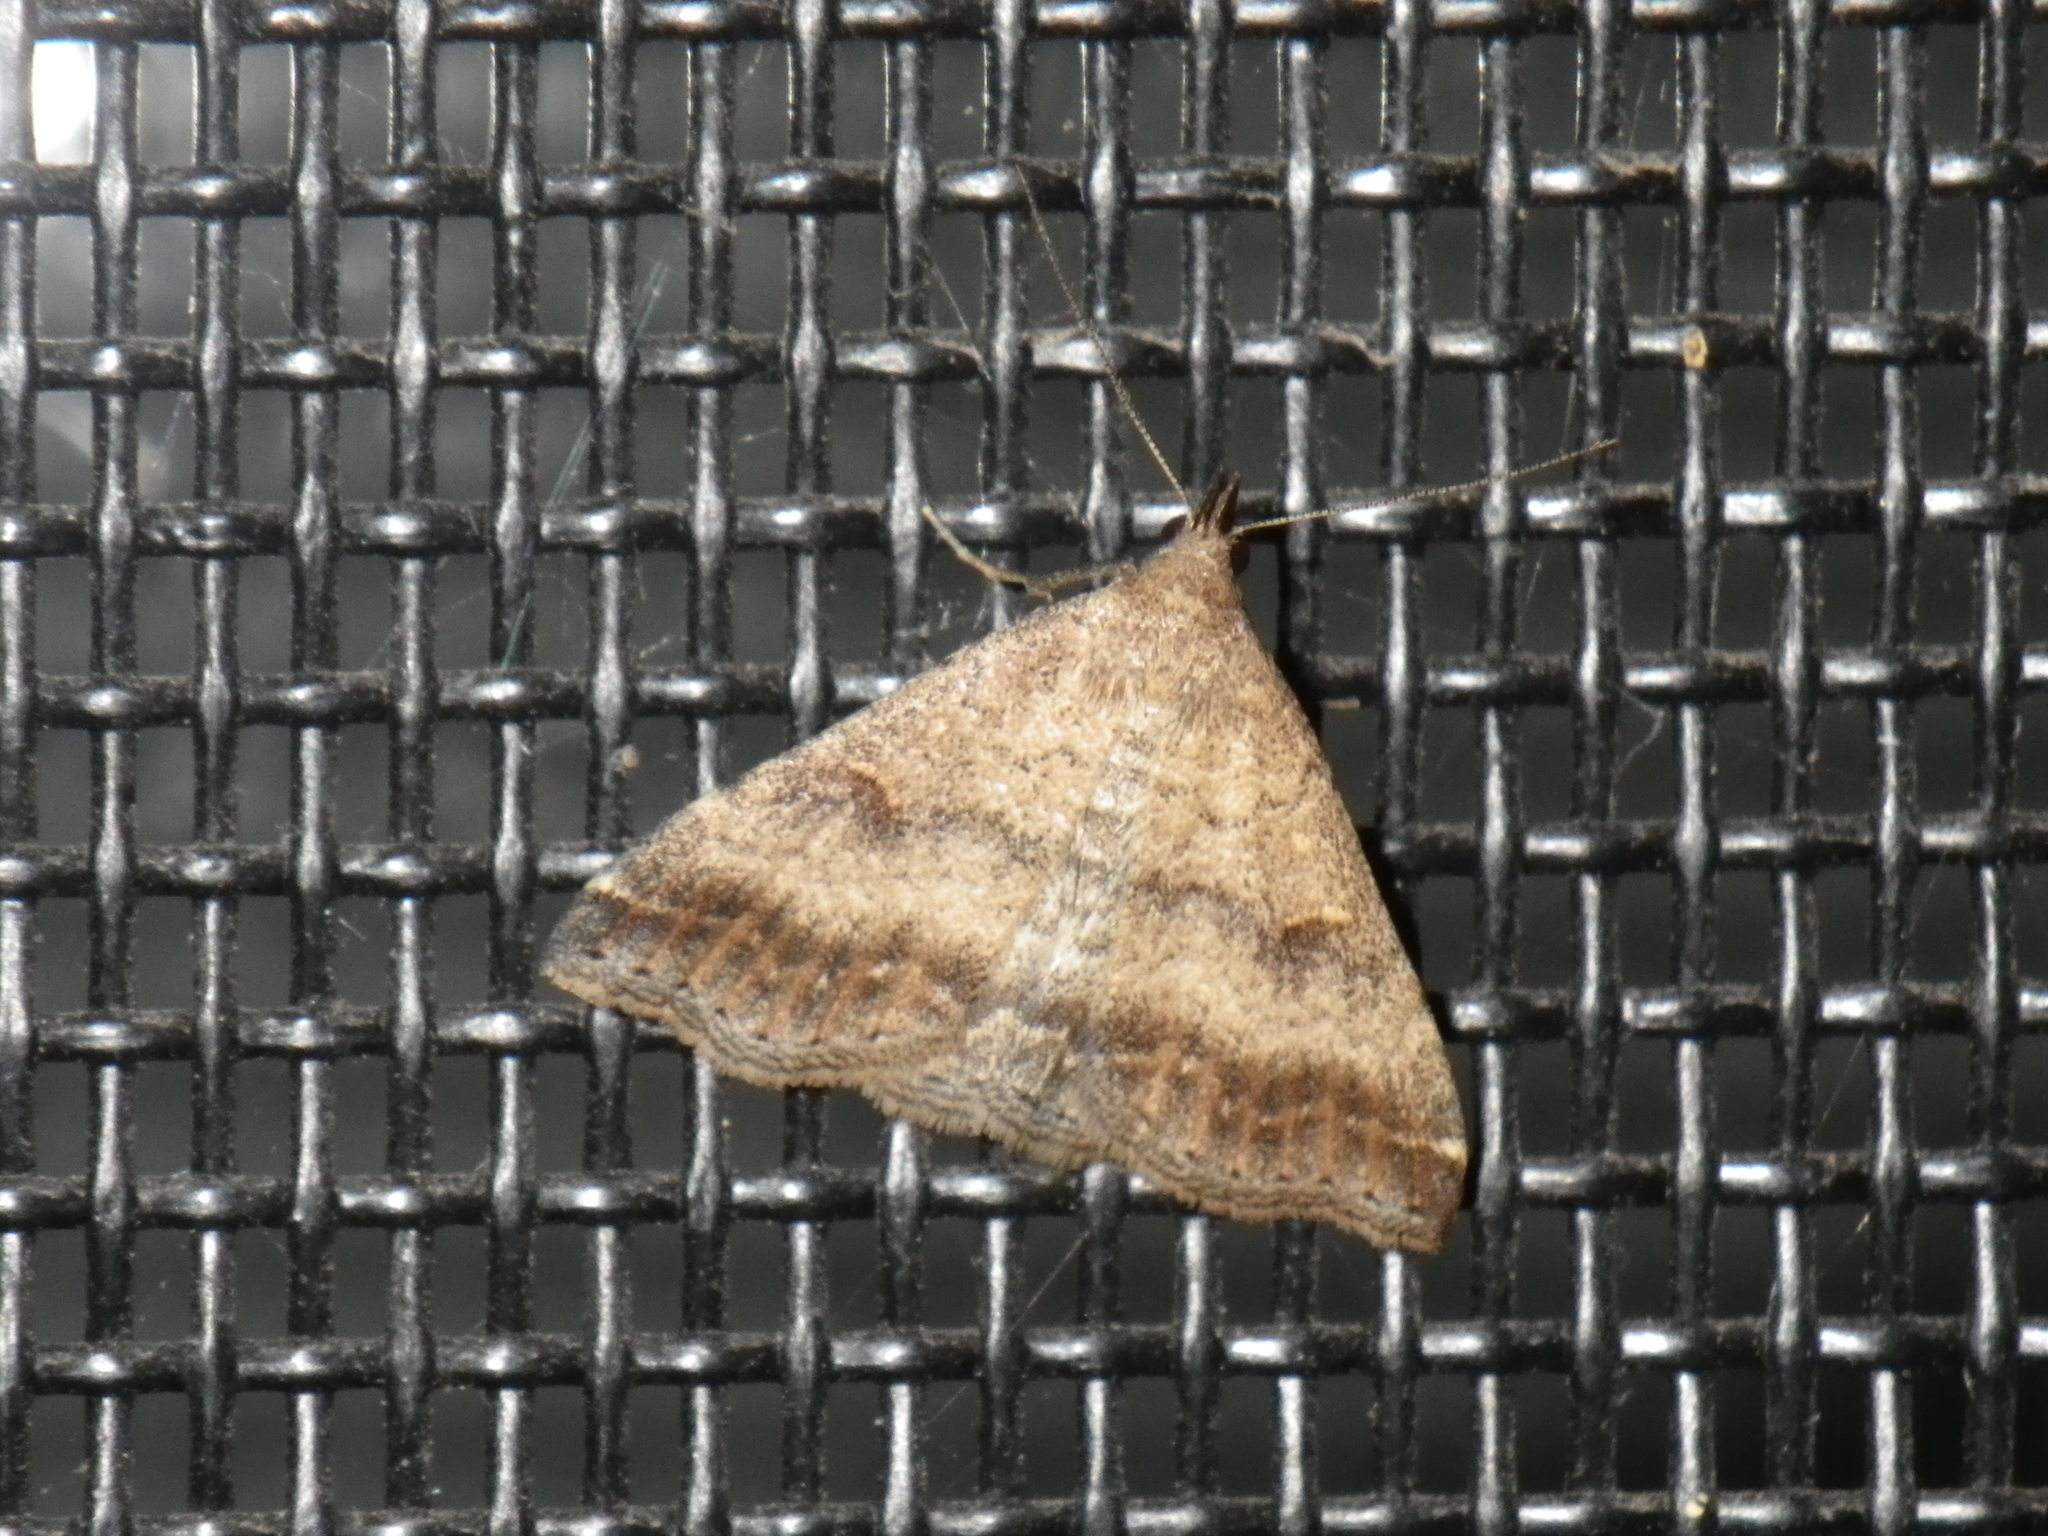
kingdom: Animalia
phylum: Arthropoda
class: Insecta
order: Lepidoptera
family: Erebidae
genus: Tetanolita
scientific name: Tetanolita palligera
